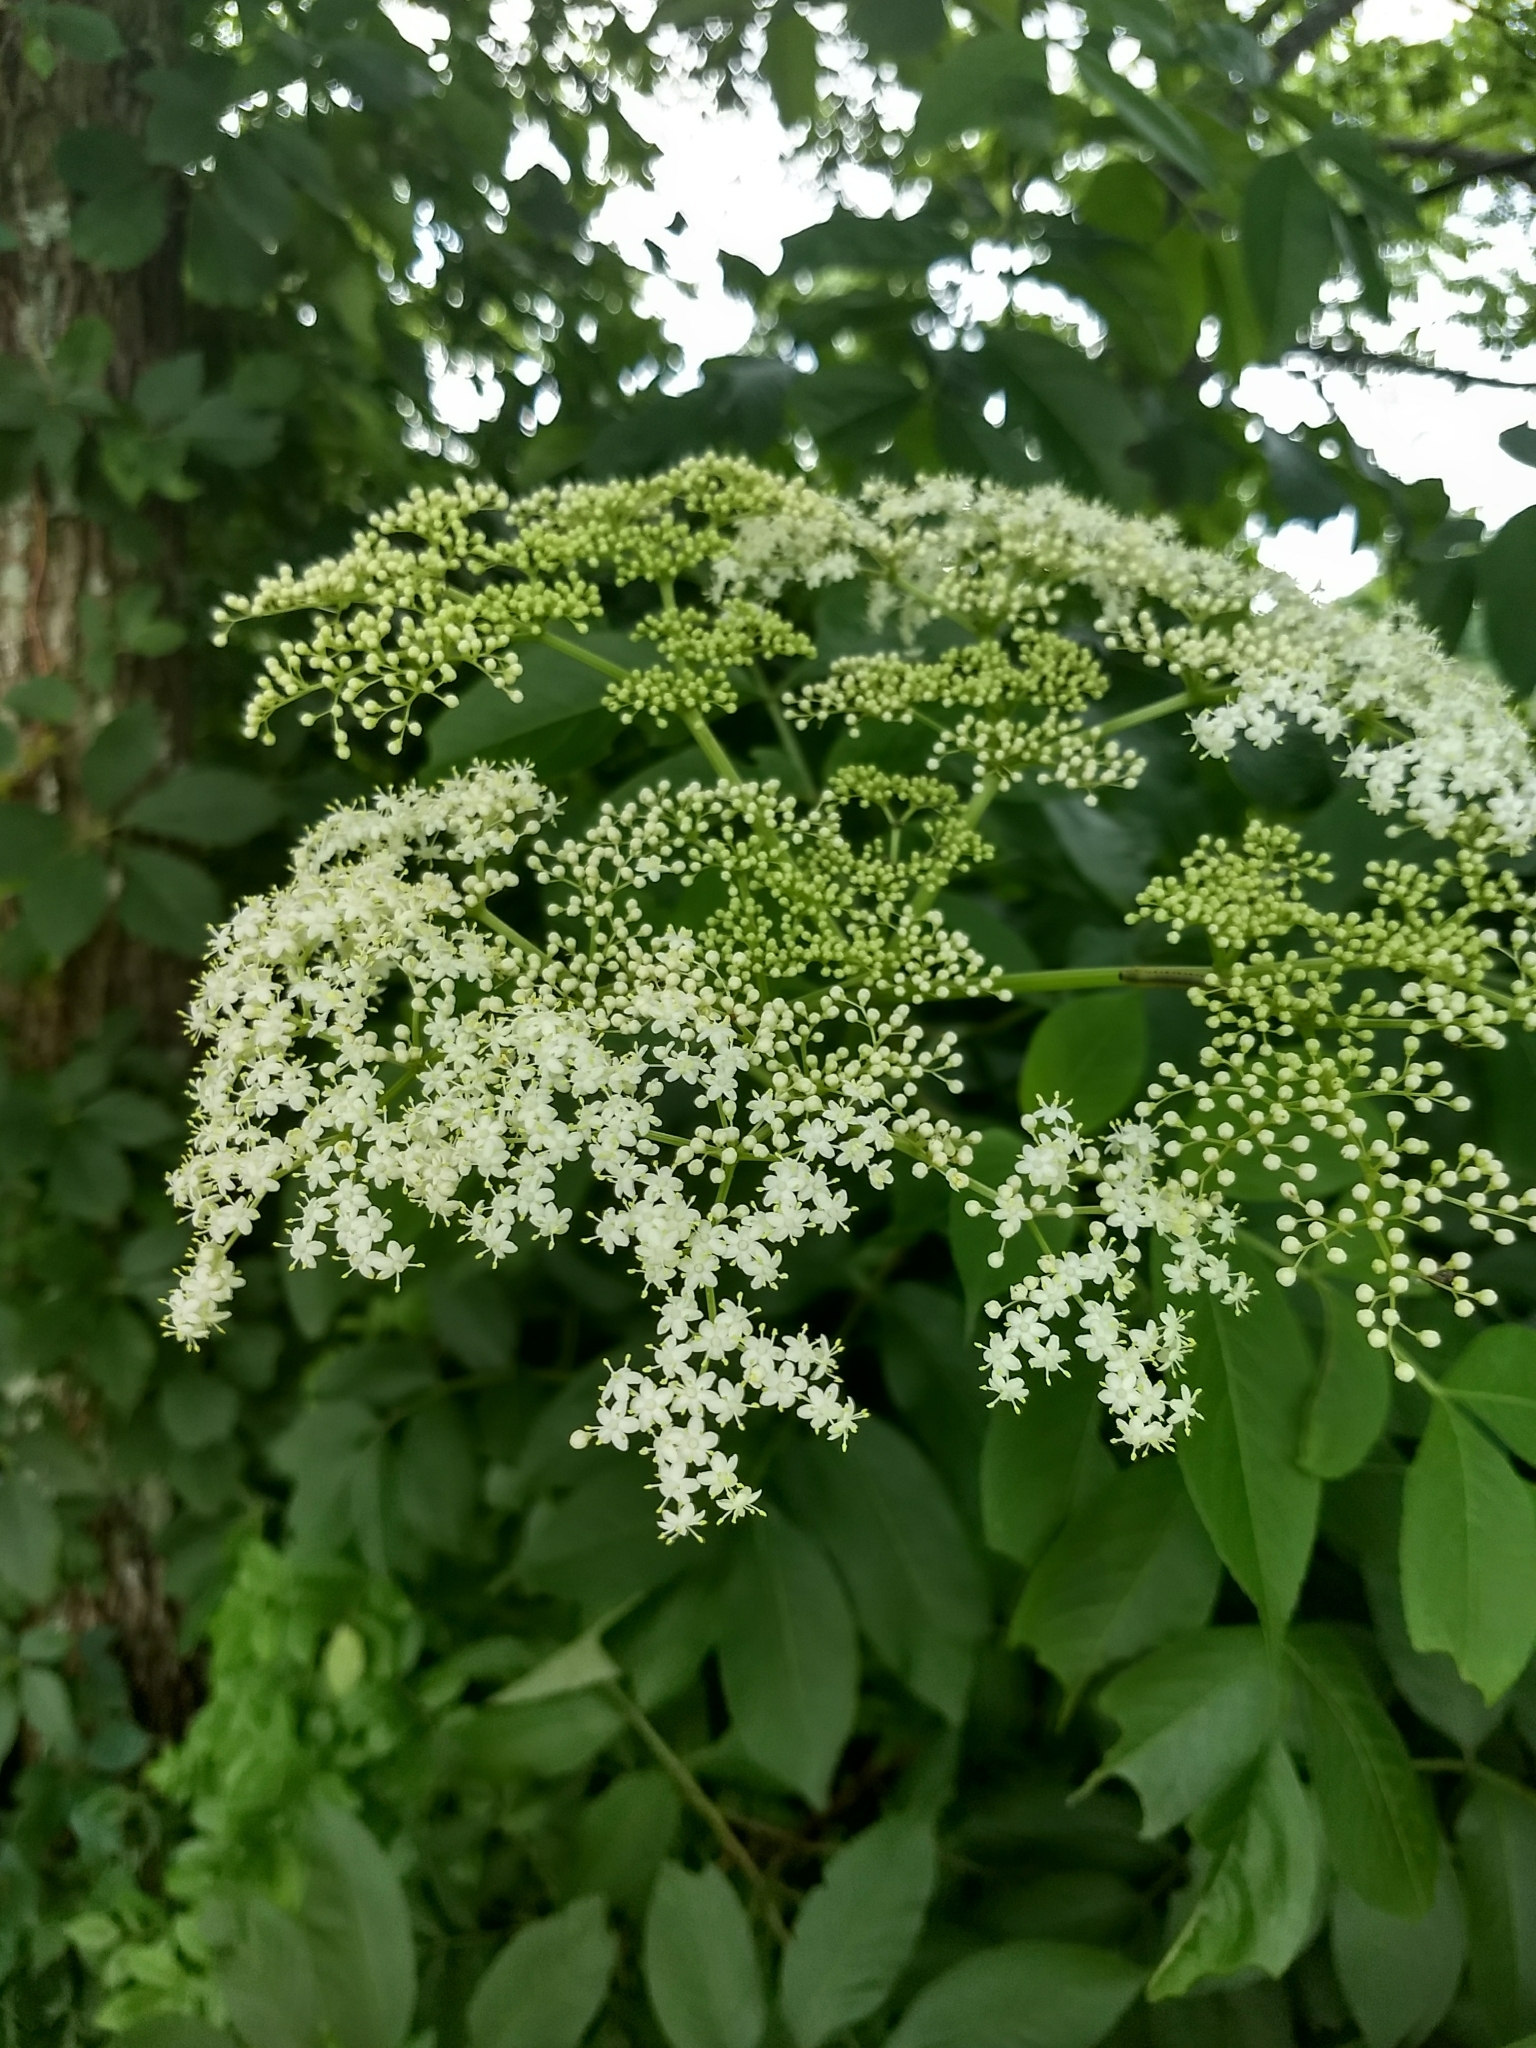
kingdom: Plantae
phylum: Tracheophyta
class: Magnoliopsida
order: Dipsacales
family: Viburnaceae
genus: Sambucus
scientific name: Sambucus canadensis
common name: American elder
